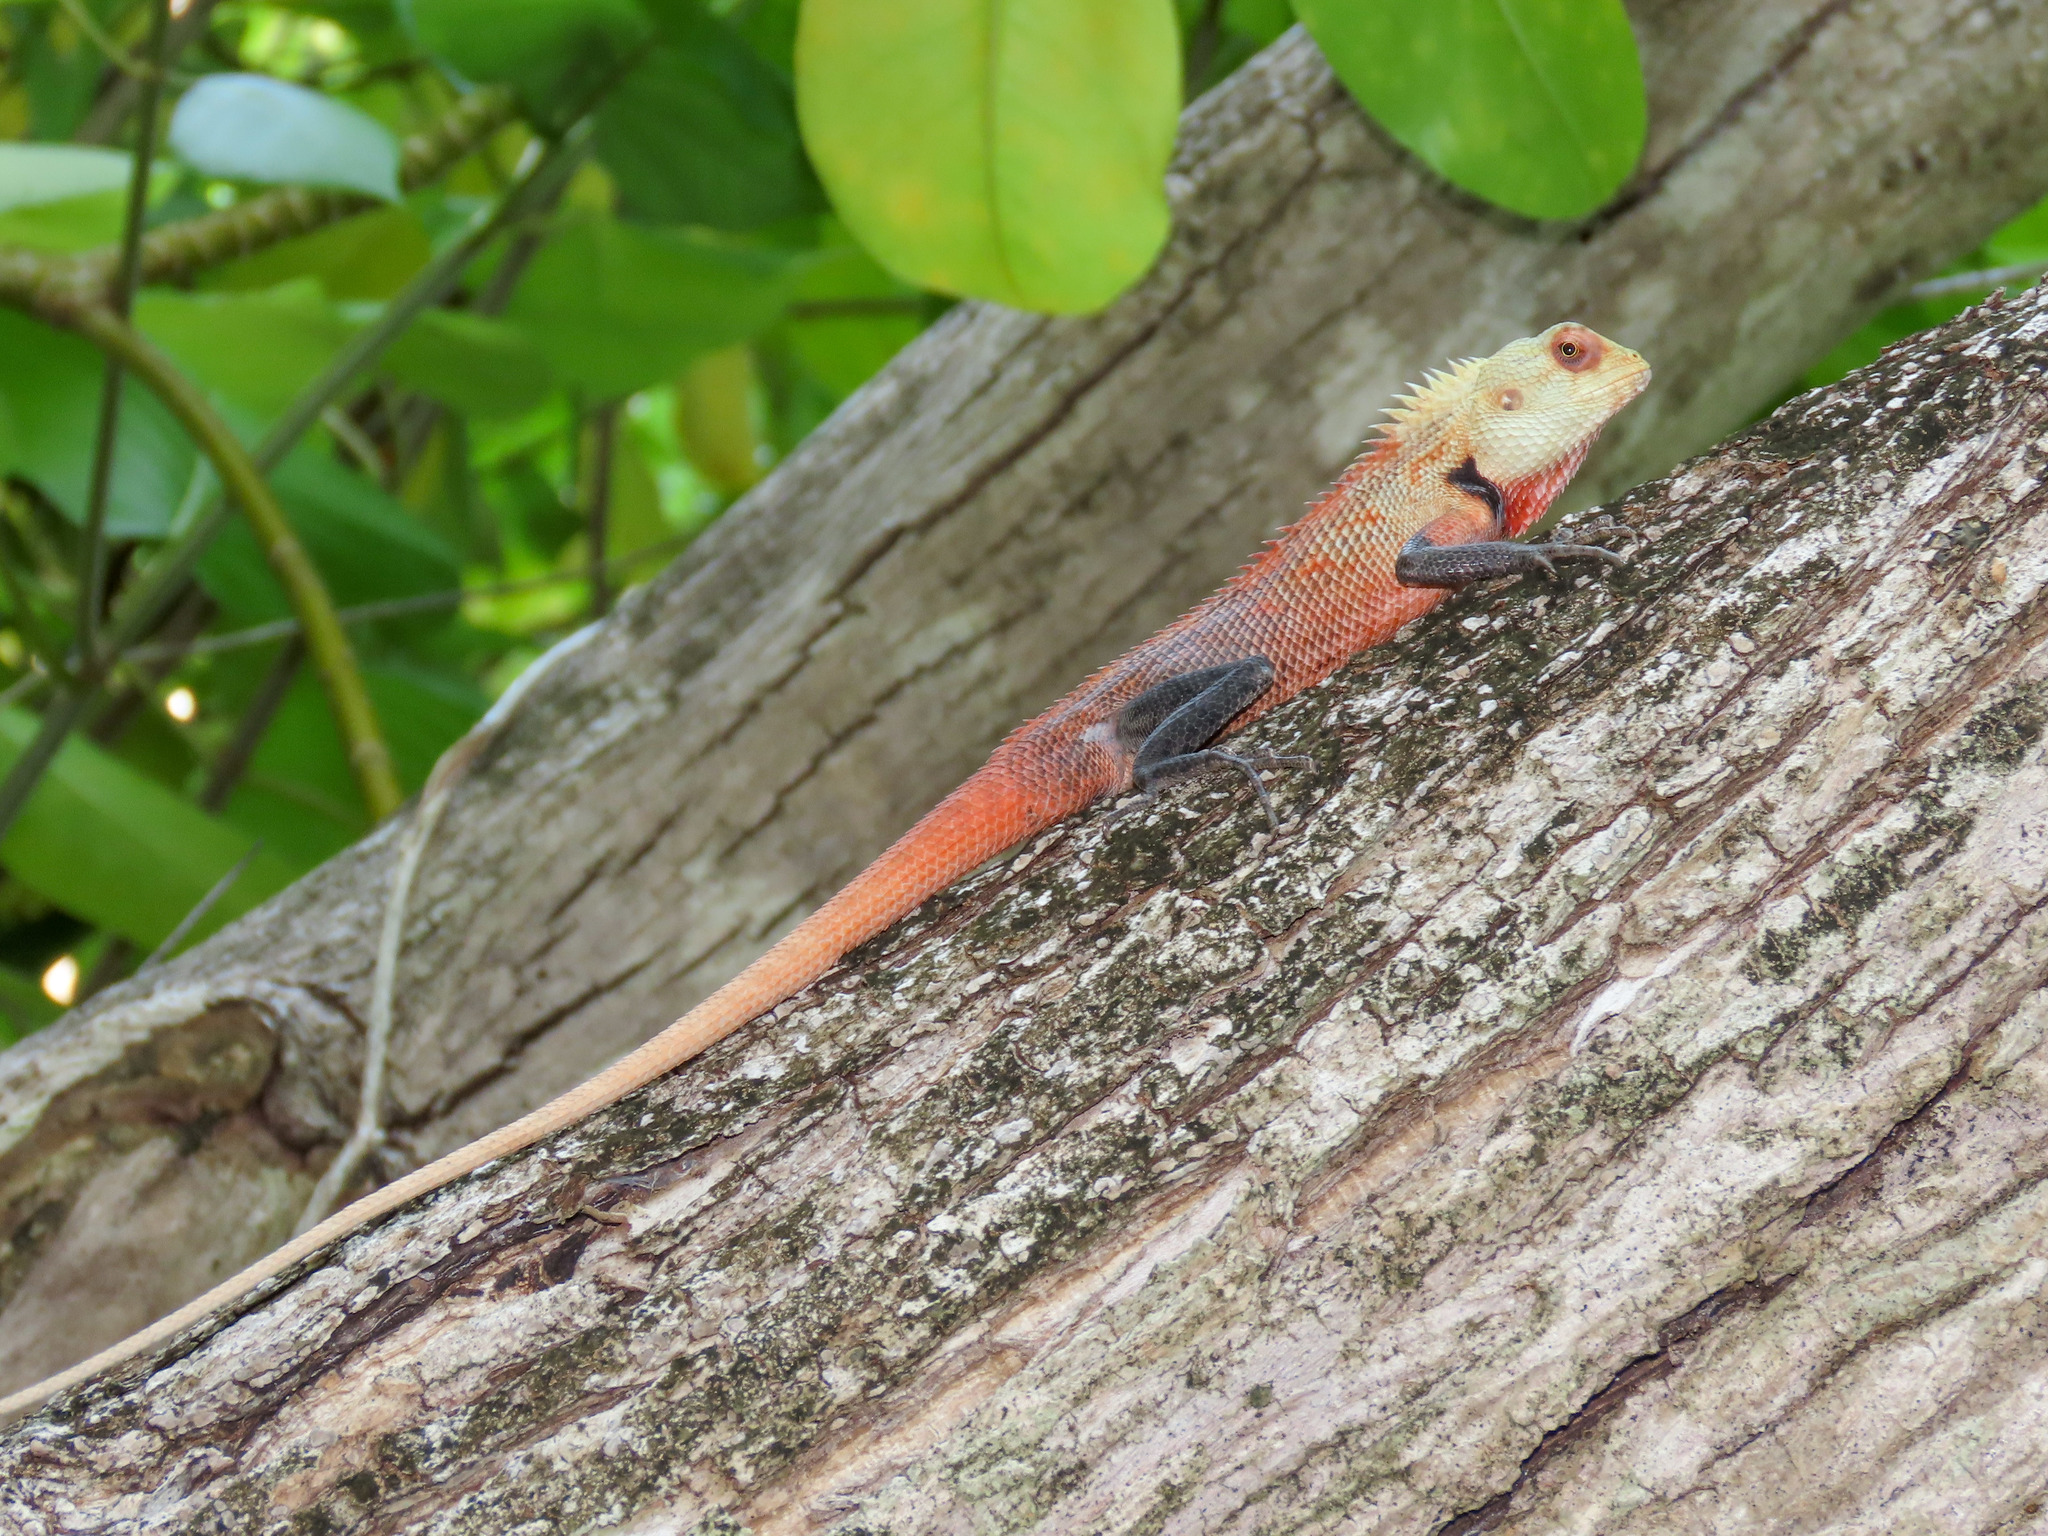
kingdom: Animalia
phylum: Chordata
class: Squamata
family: Agamidae
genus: Calotes
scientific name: Calotes versicolor
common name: Oriental garden lizard
